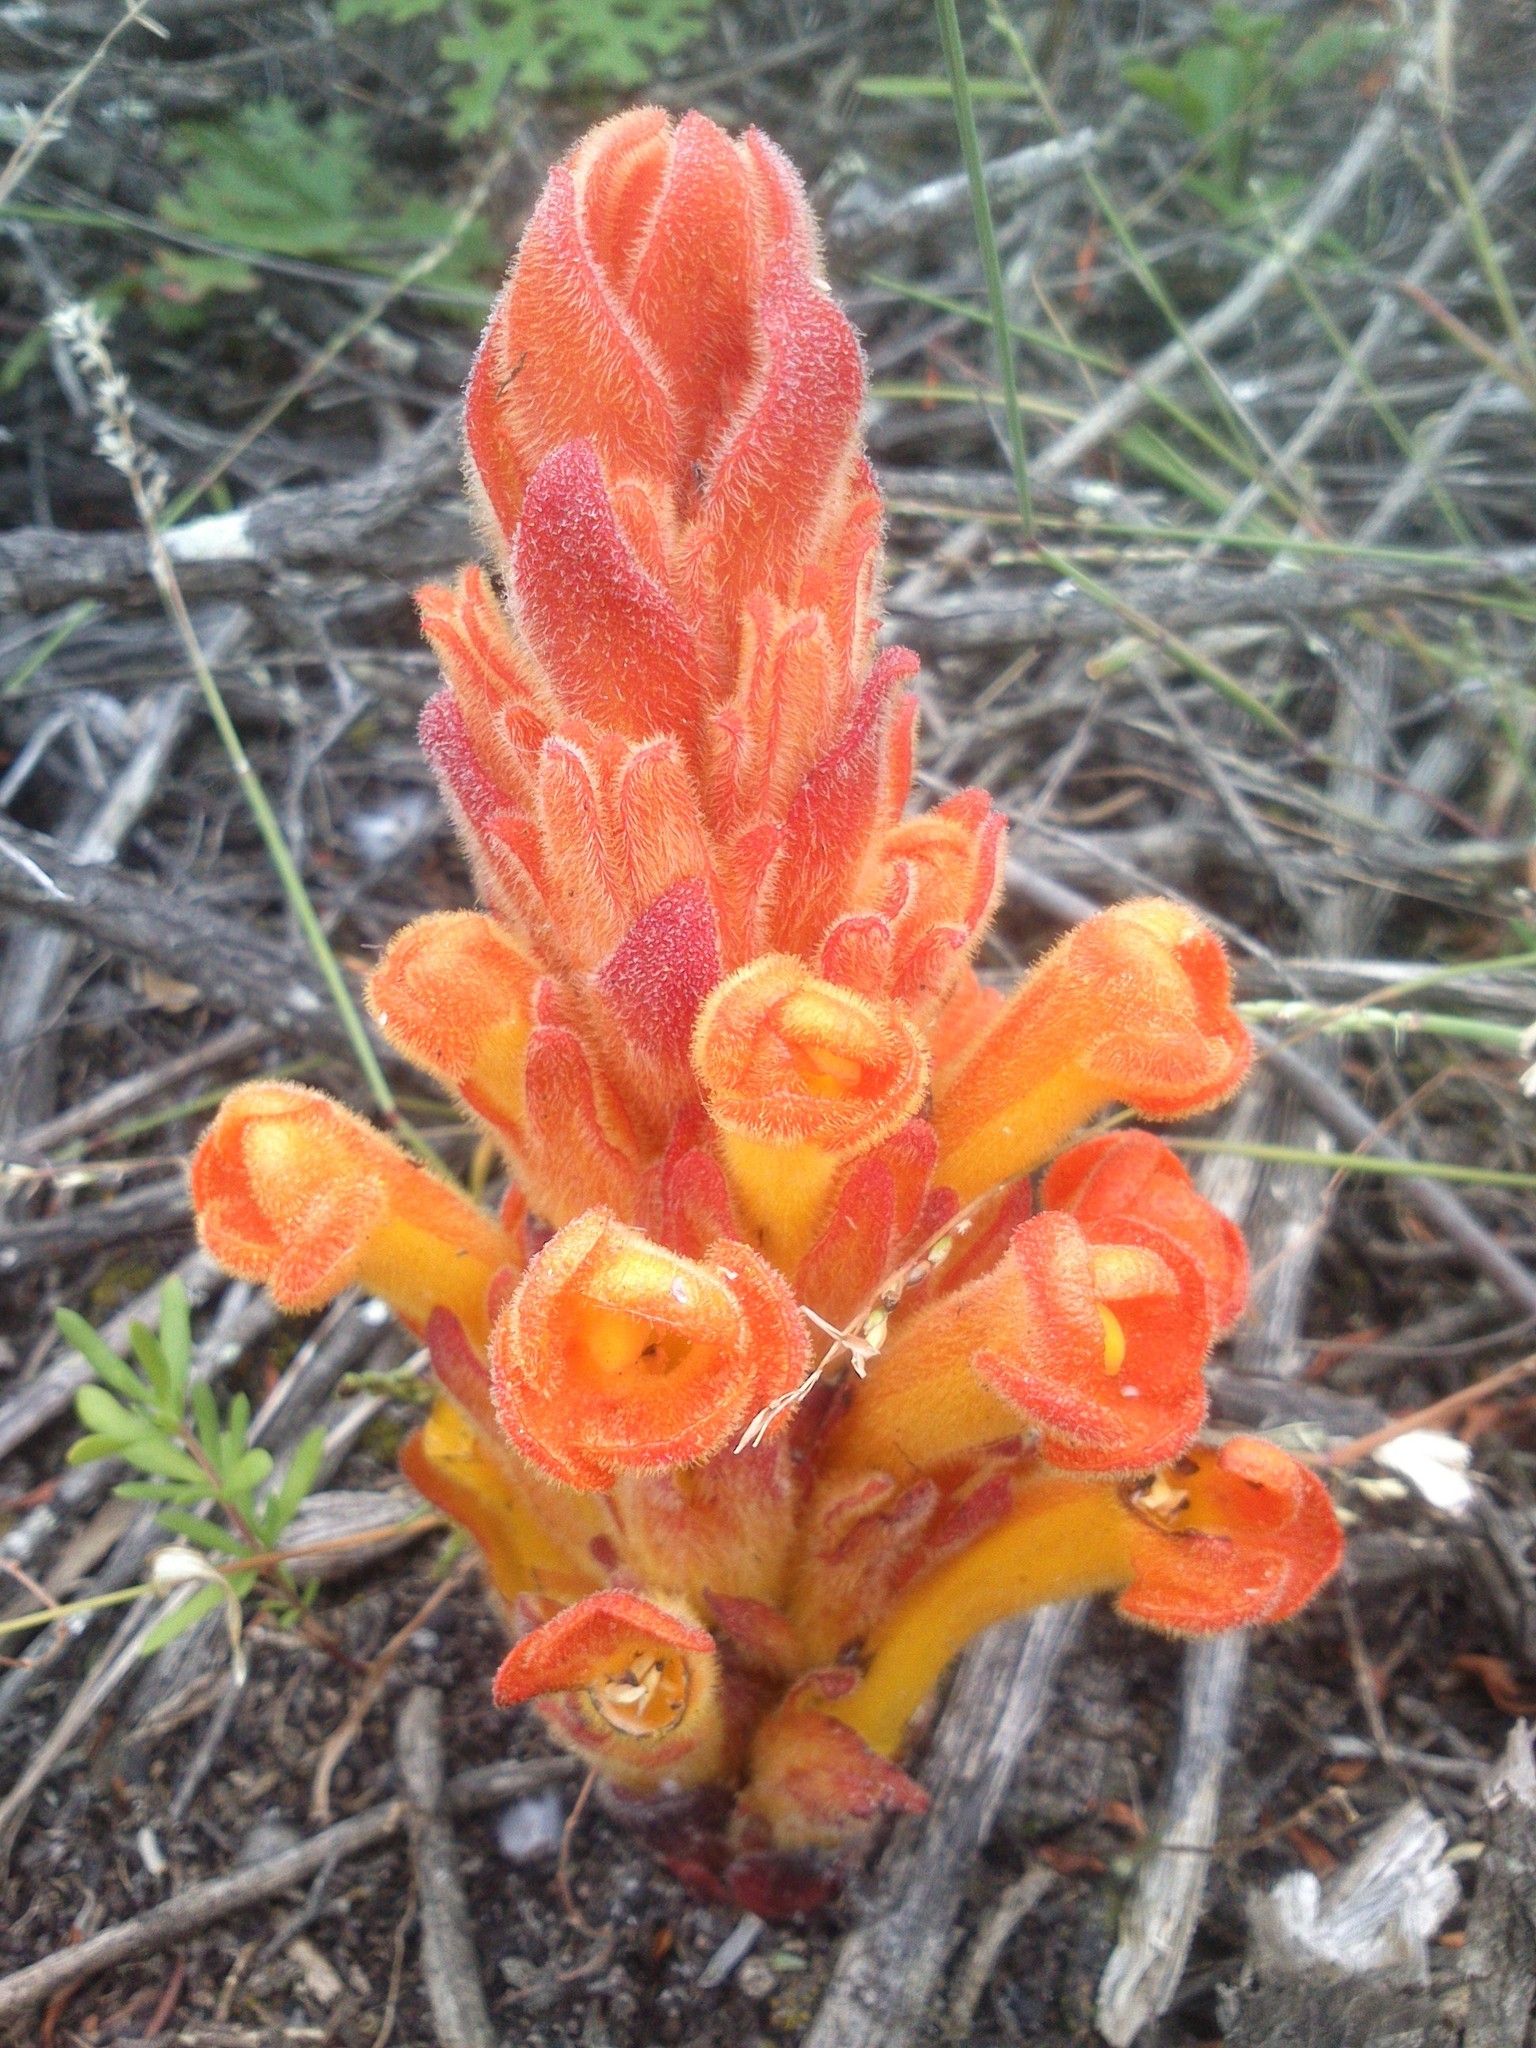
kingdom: Plantae
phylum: Tracheophyta
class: Magnoliopsida
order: Lamiales
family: Orobanchaceae
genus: Harveya
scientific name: Harveya squamosa
